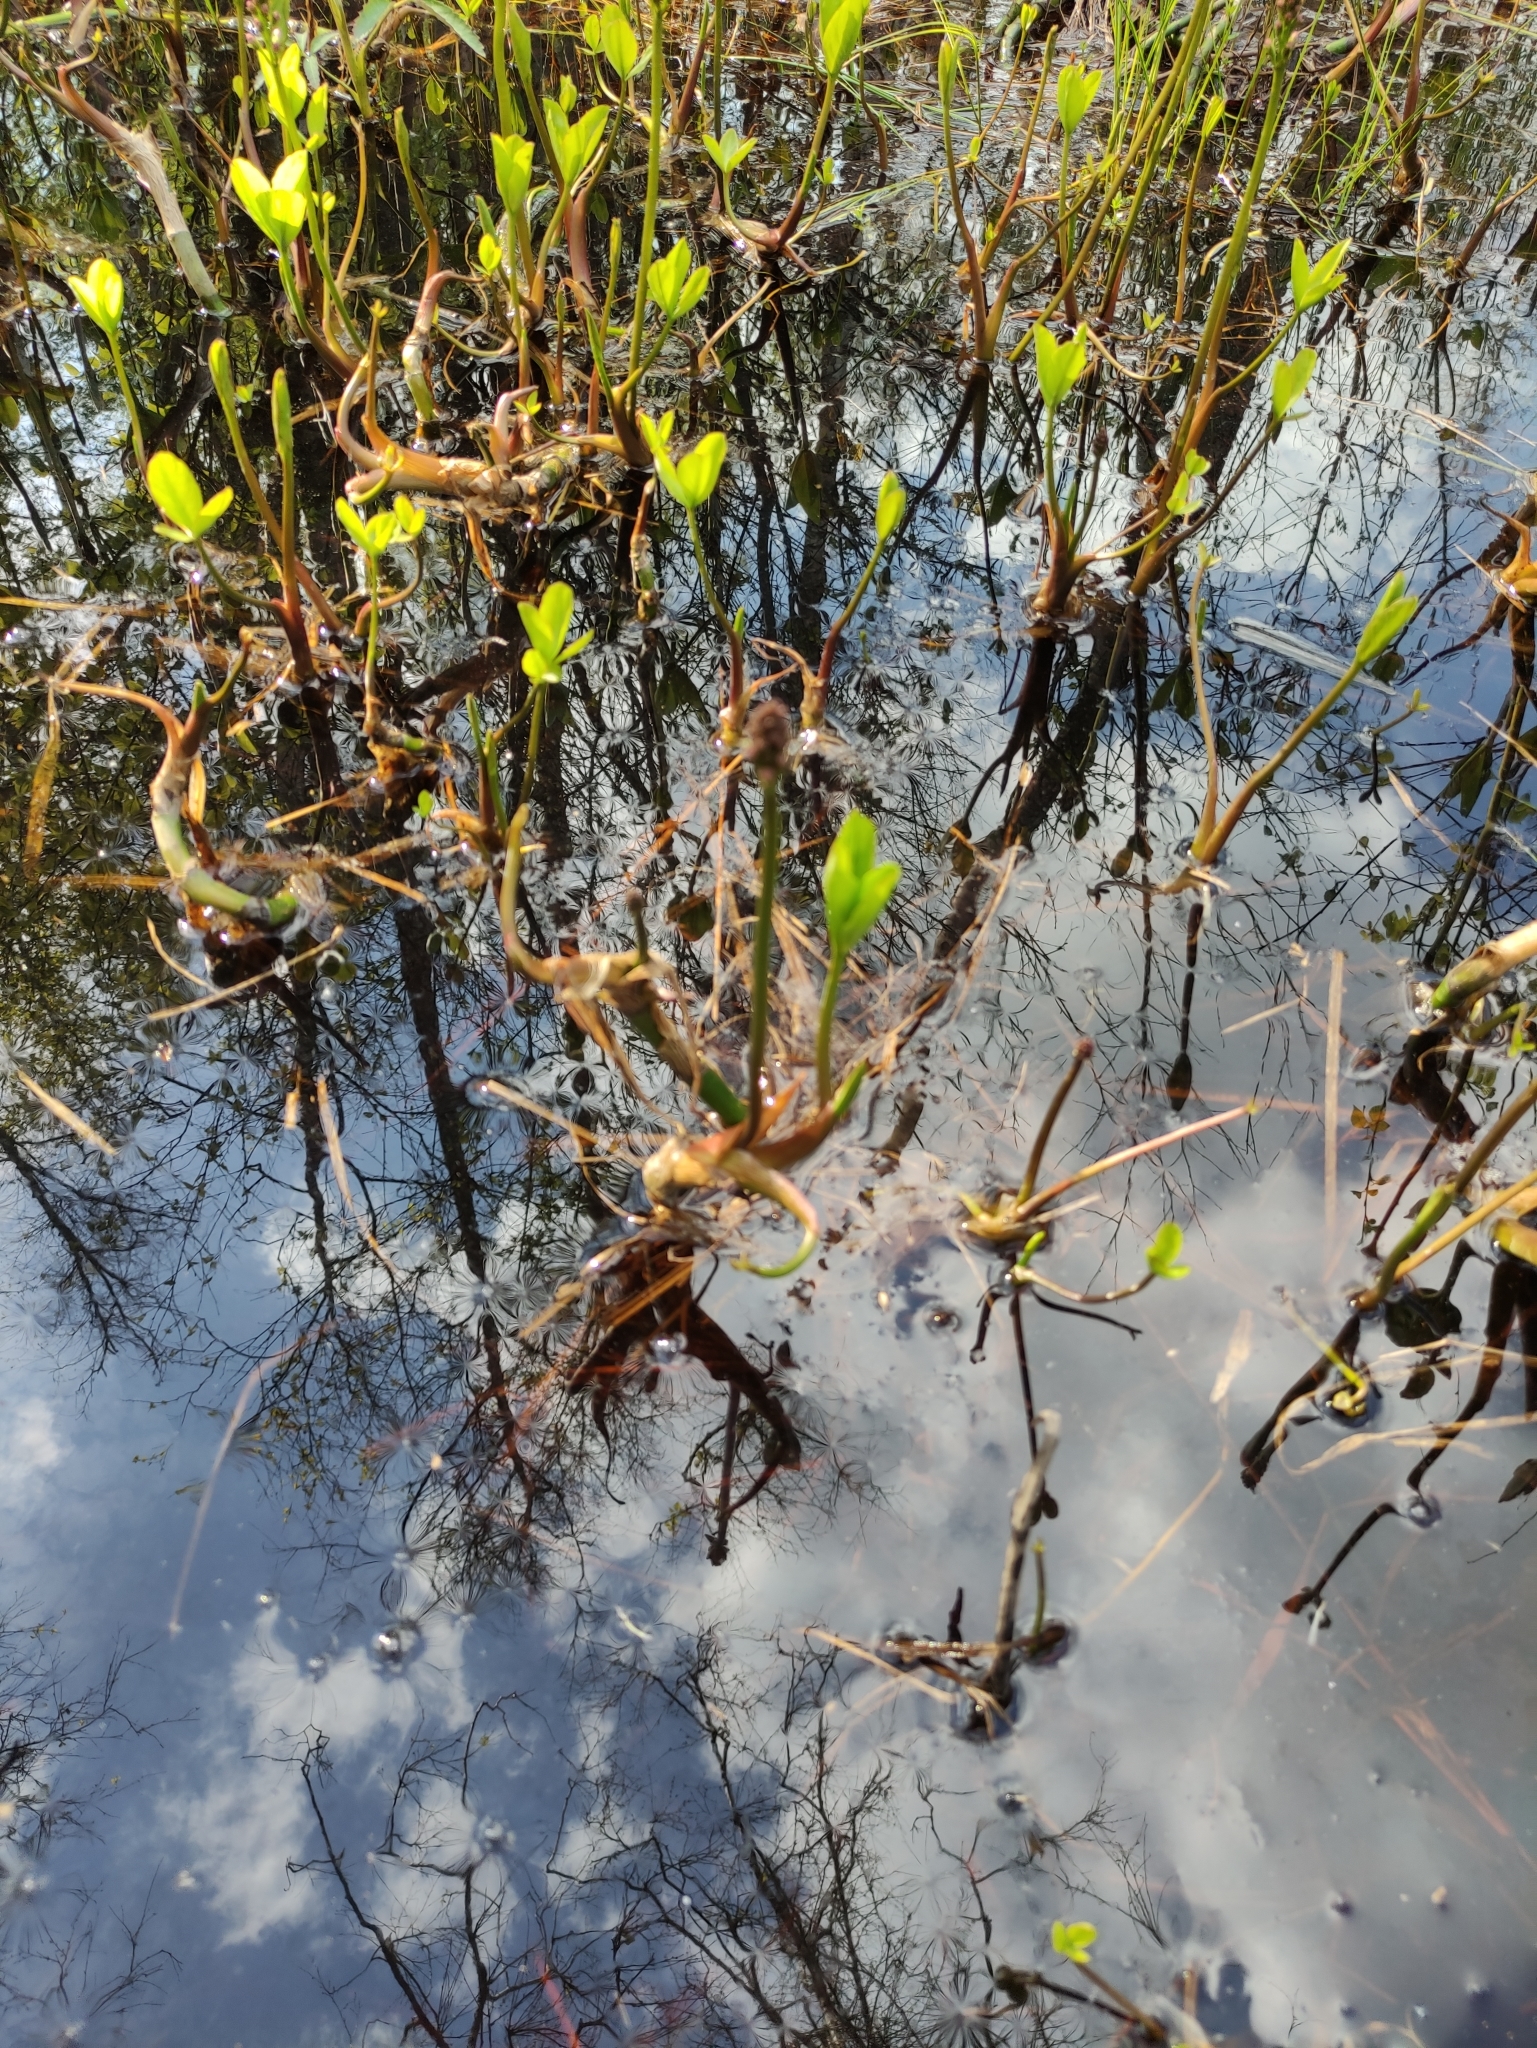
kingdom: Plantae
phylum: Tracheophyta
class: Magnoliopsida
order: Asterales
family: Menyanthaceae
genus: Menyanthes
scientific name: Menyanthes trifoliata
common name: Bogbean
